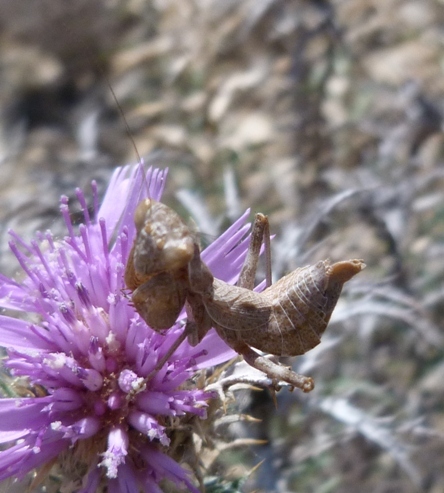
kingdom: Animalia
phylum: Arthropoda
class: Insecta
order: Mantodea
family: Amelidae
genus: Ameles
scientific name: Ameles spallanzania
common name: European dwarf mantis
